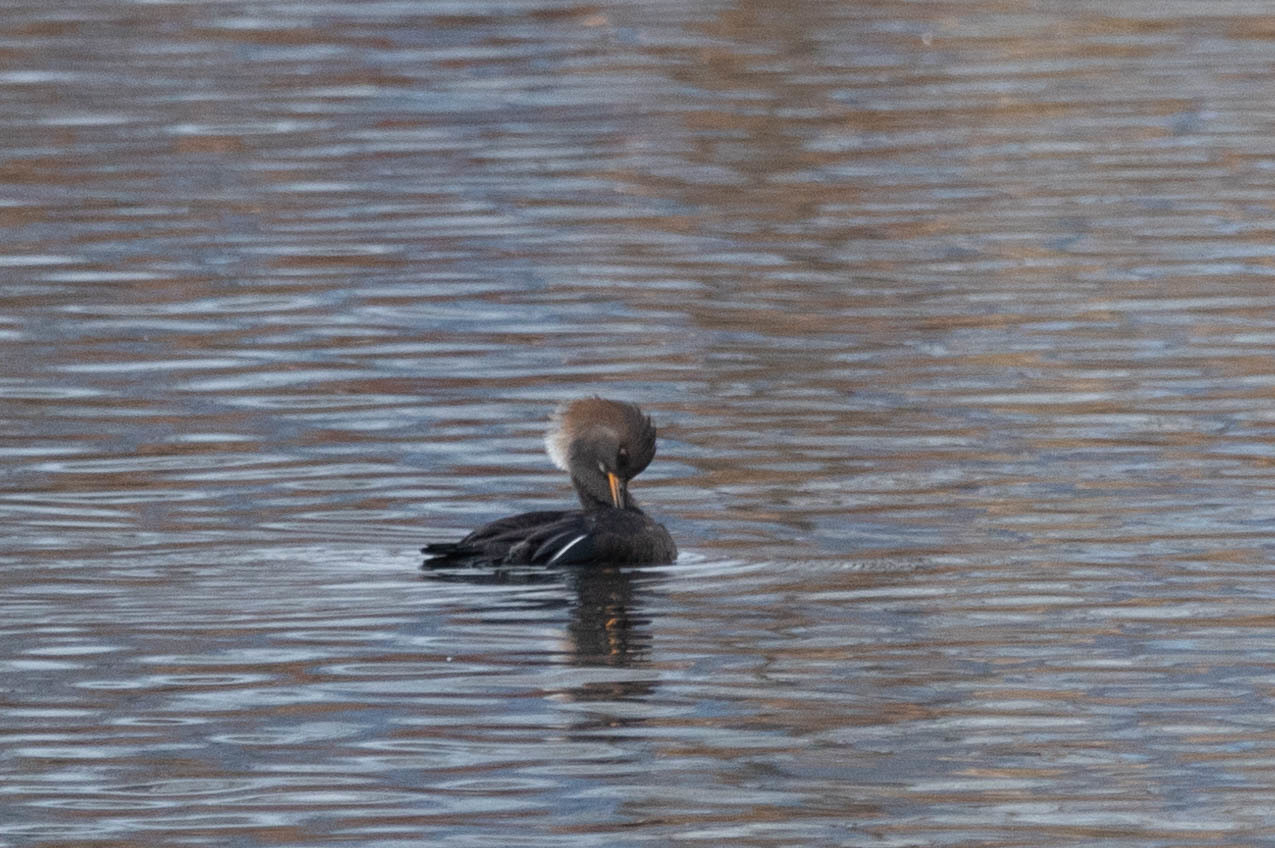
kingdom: Animalia
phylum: Chordata
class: Aves
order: Anseriformes
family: Anatidae
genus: Lophodytes
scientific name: Lophodytes cucullatus
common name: Hooded merganser
